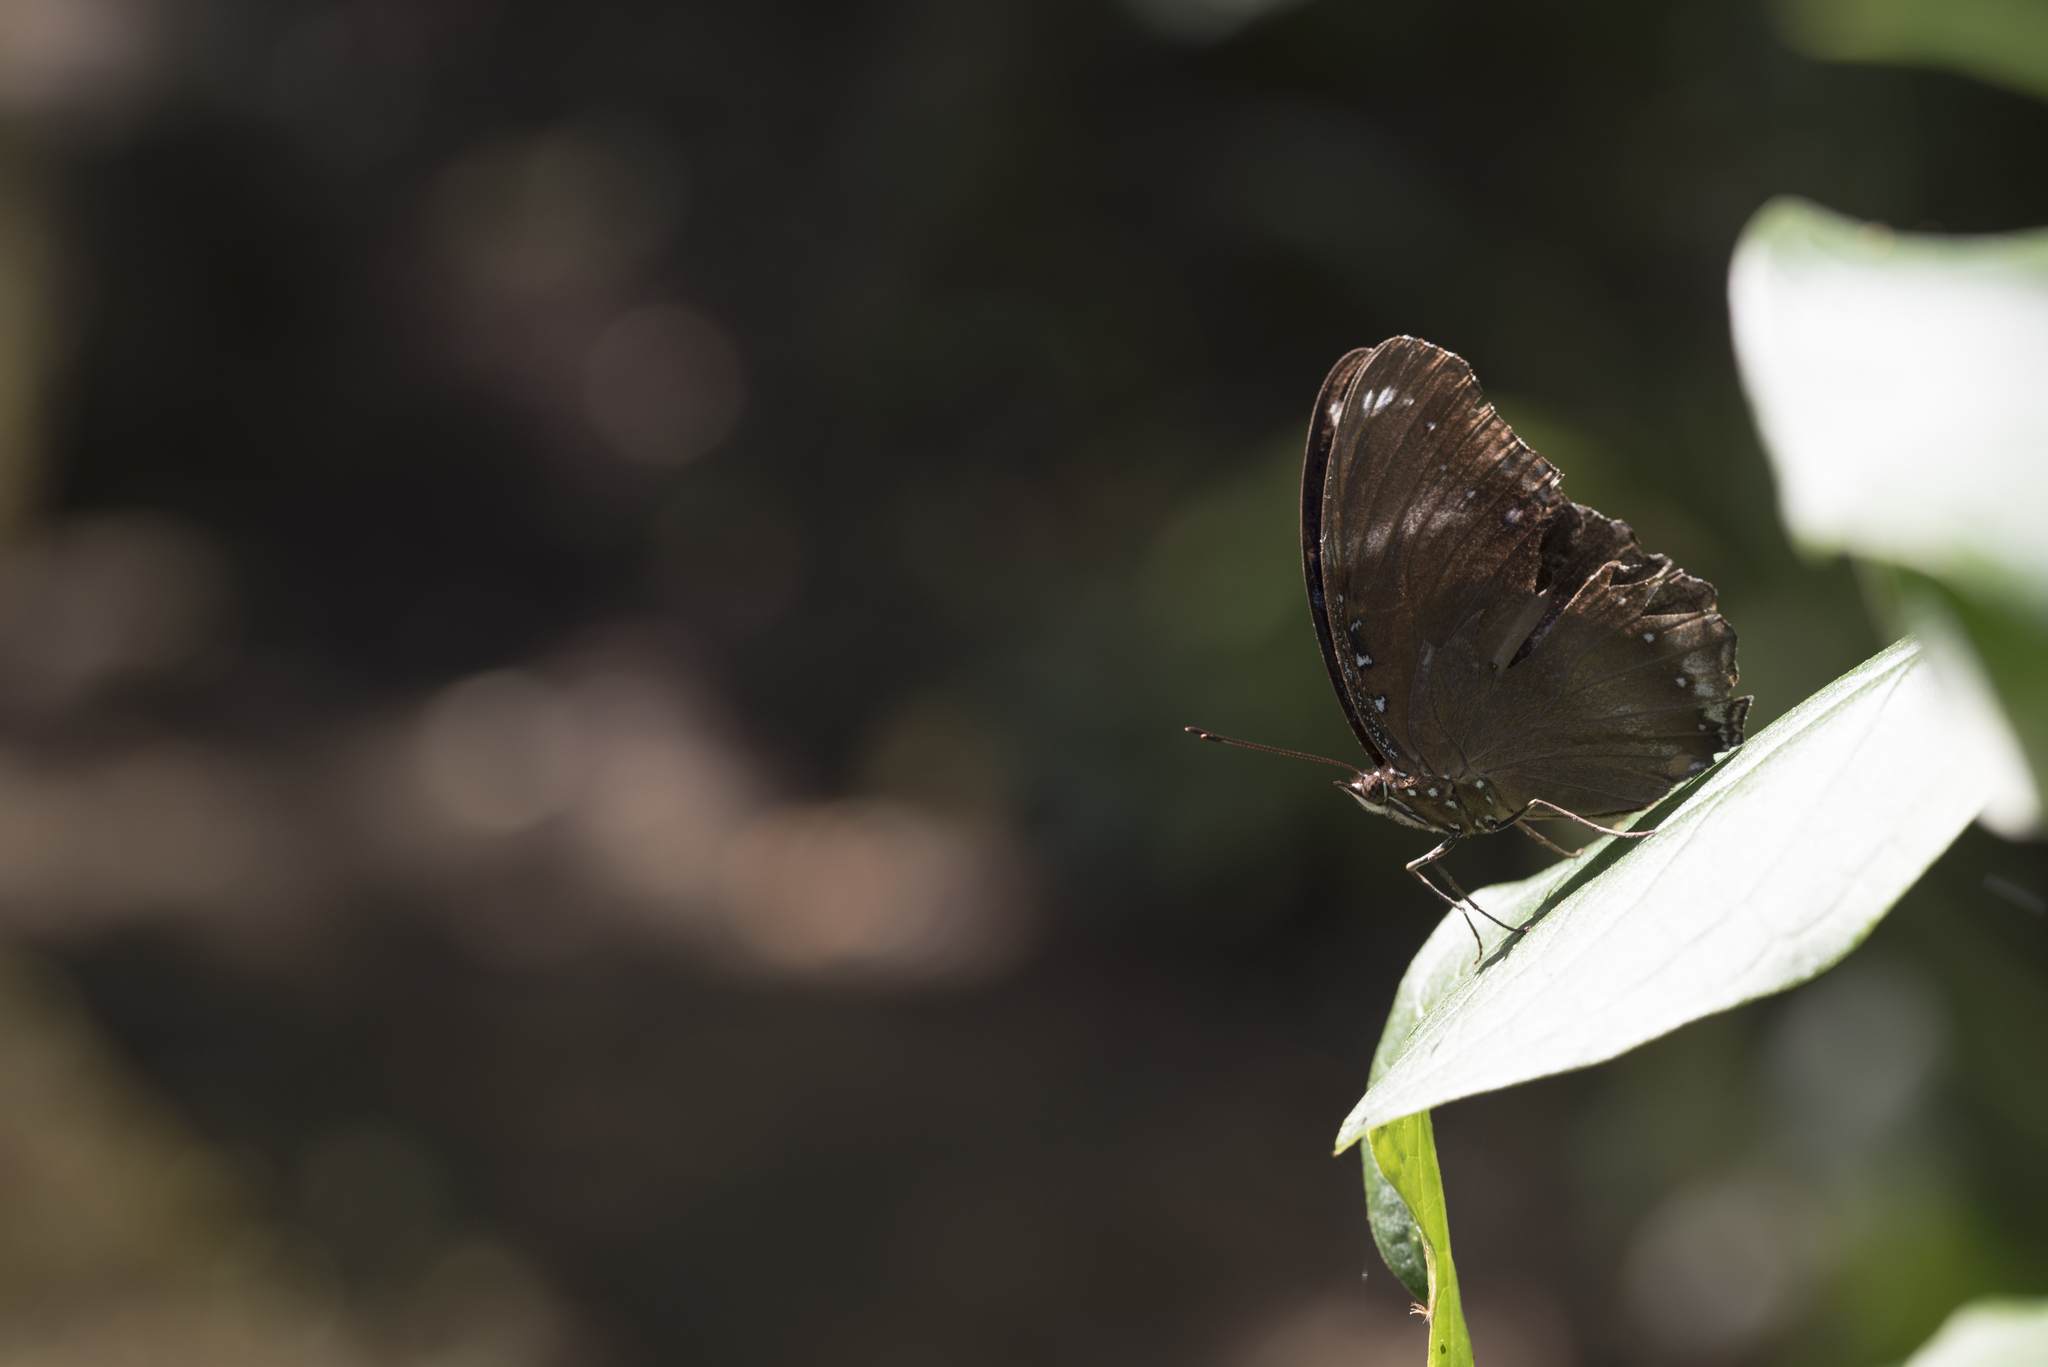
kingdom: Animalia
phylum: Arthropoda
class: Insecta
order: Lepidoptera
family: Nymphalidae
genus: Hypolimnas
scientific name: Hypolimnas bolina
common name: Great eggfly
